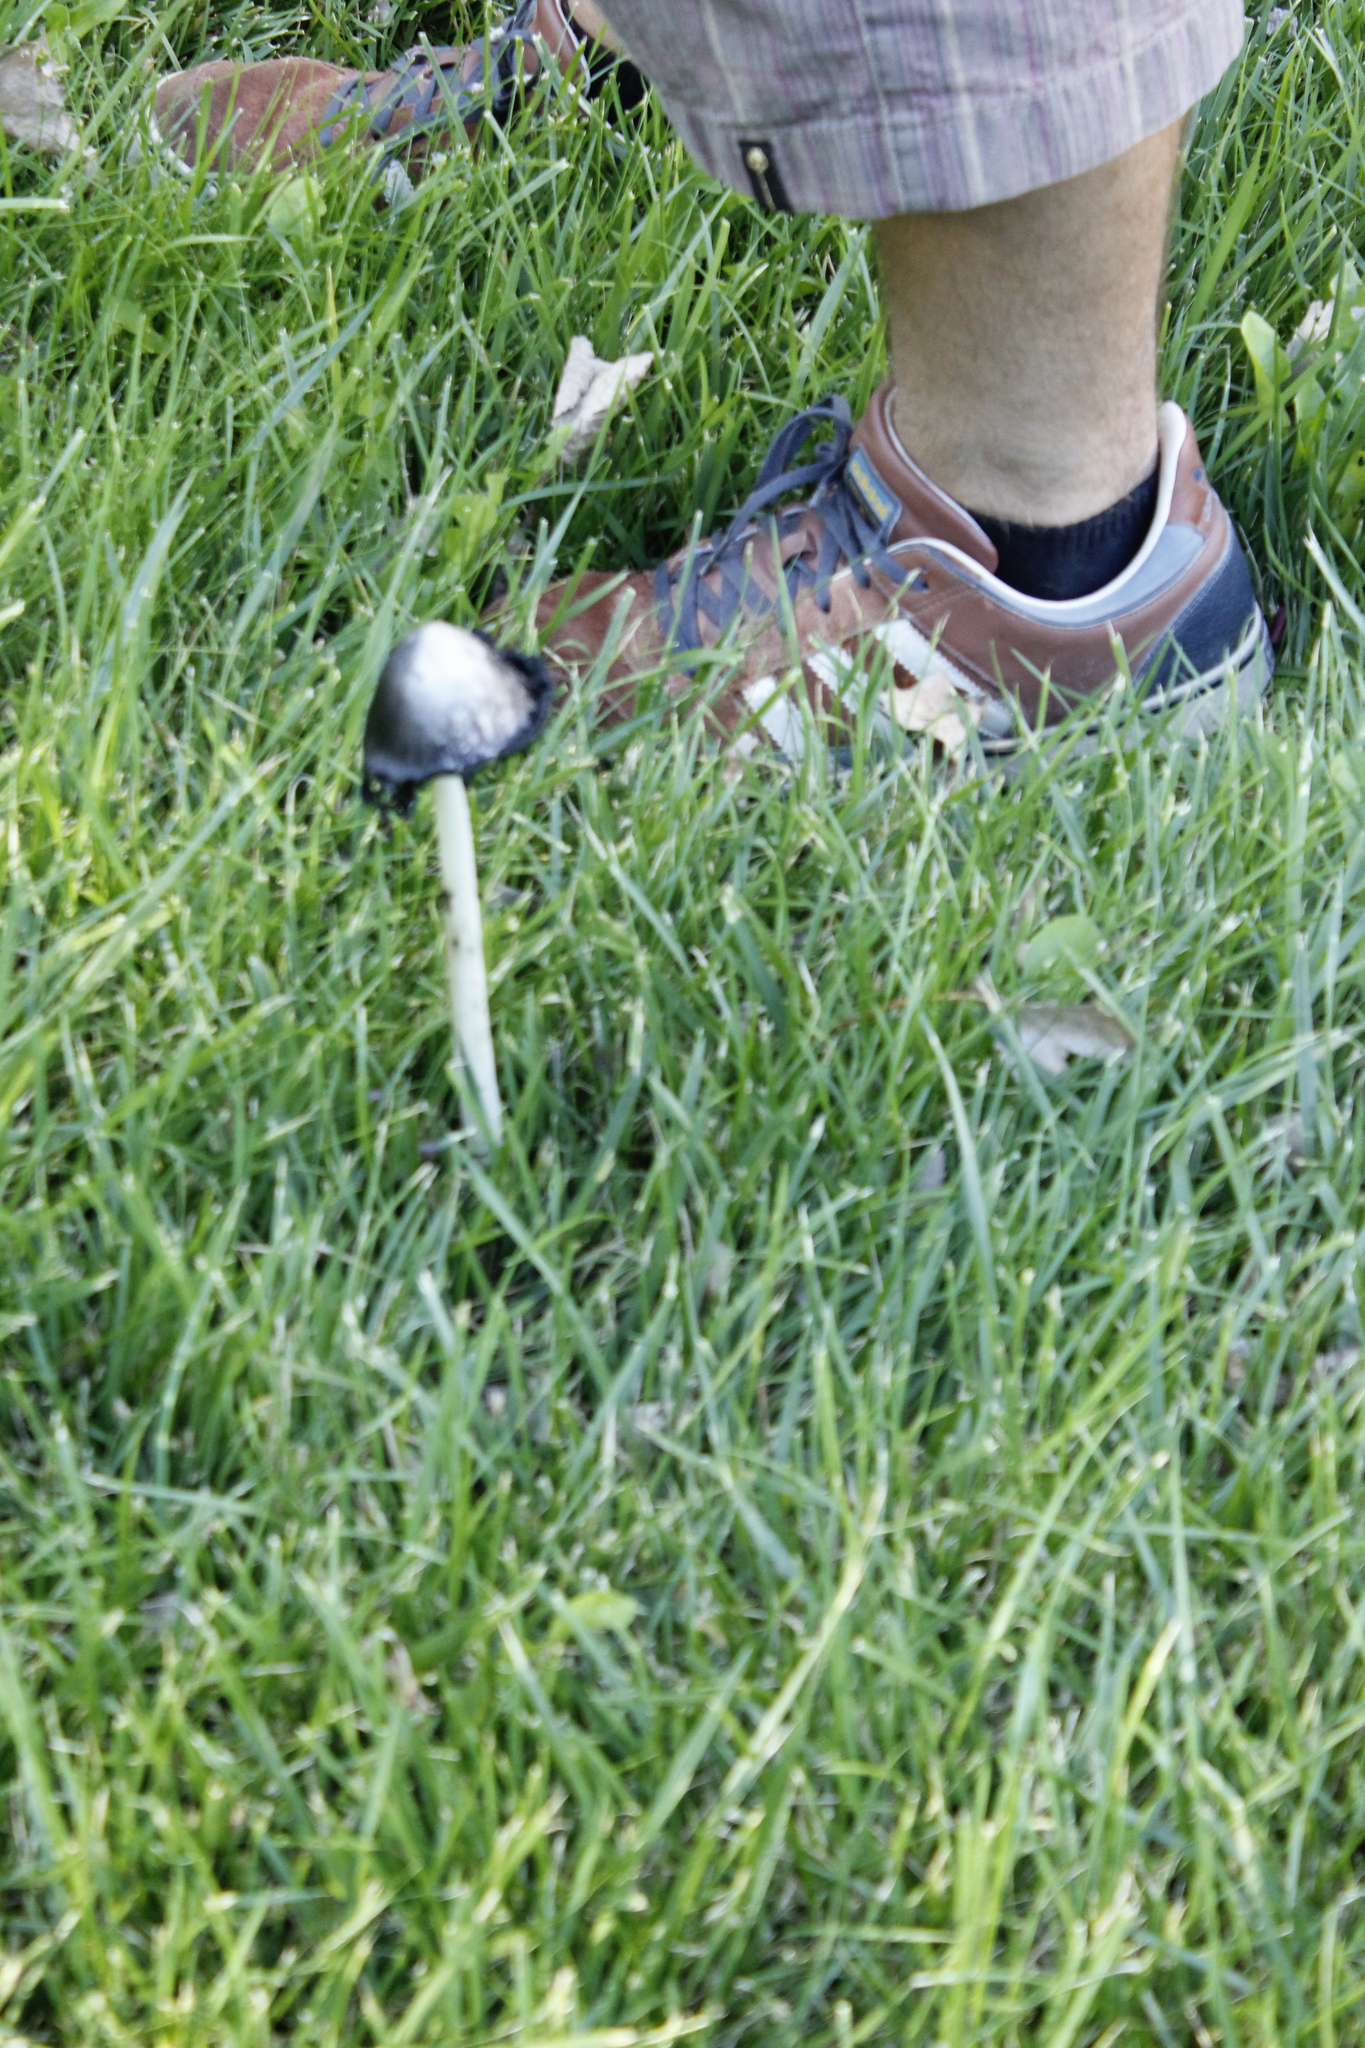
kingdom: Fungi
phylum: Basidiomycota
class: Agaricomycetes
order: Agaricales
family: Agaricaceae
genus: Coprinus
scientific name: Coprinus comatus
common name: Lawyer's wig
